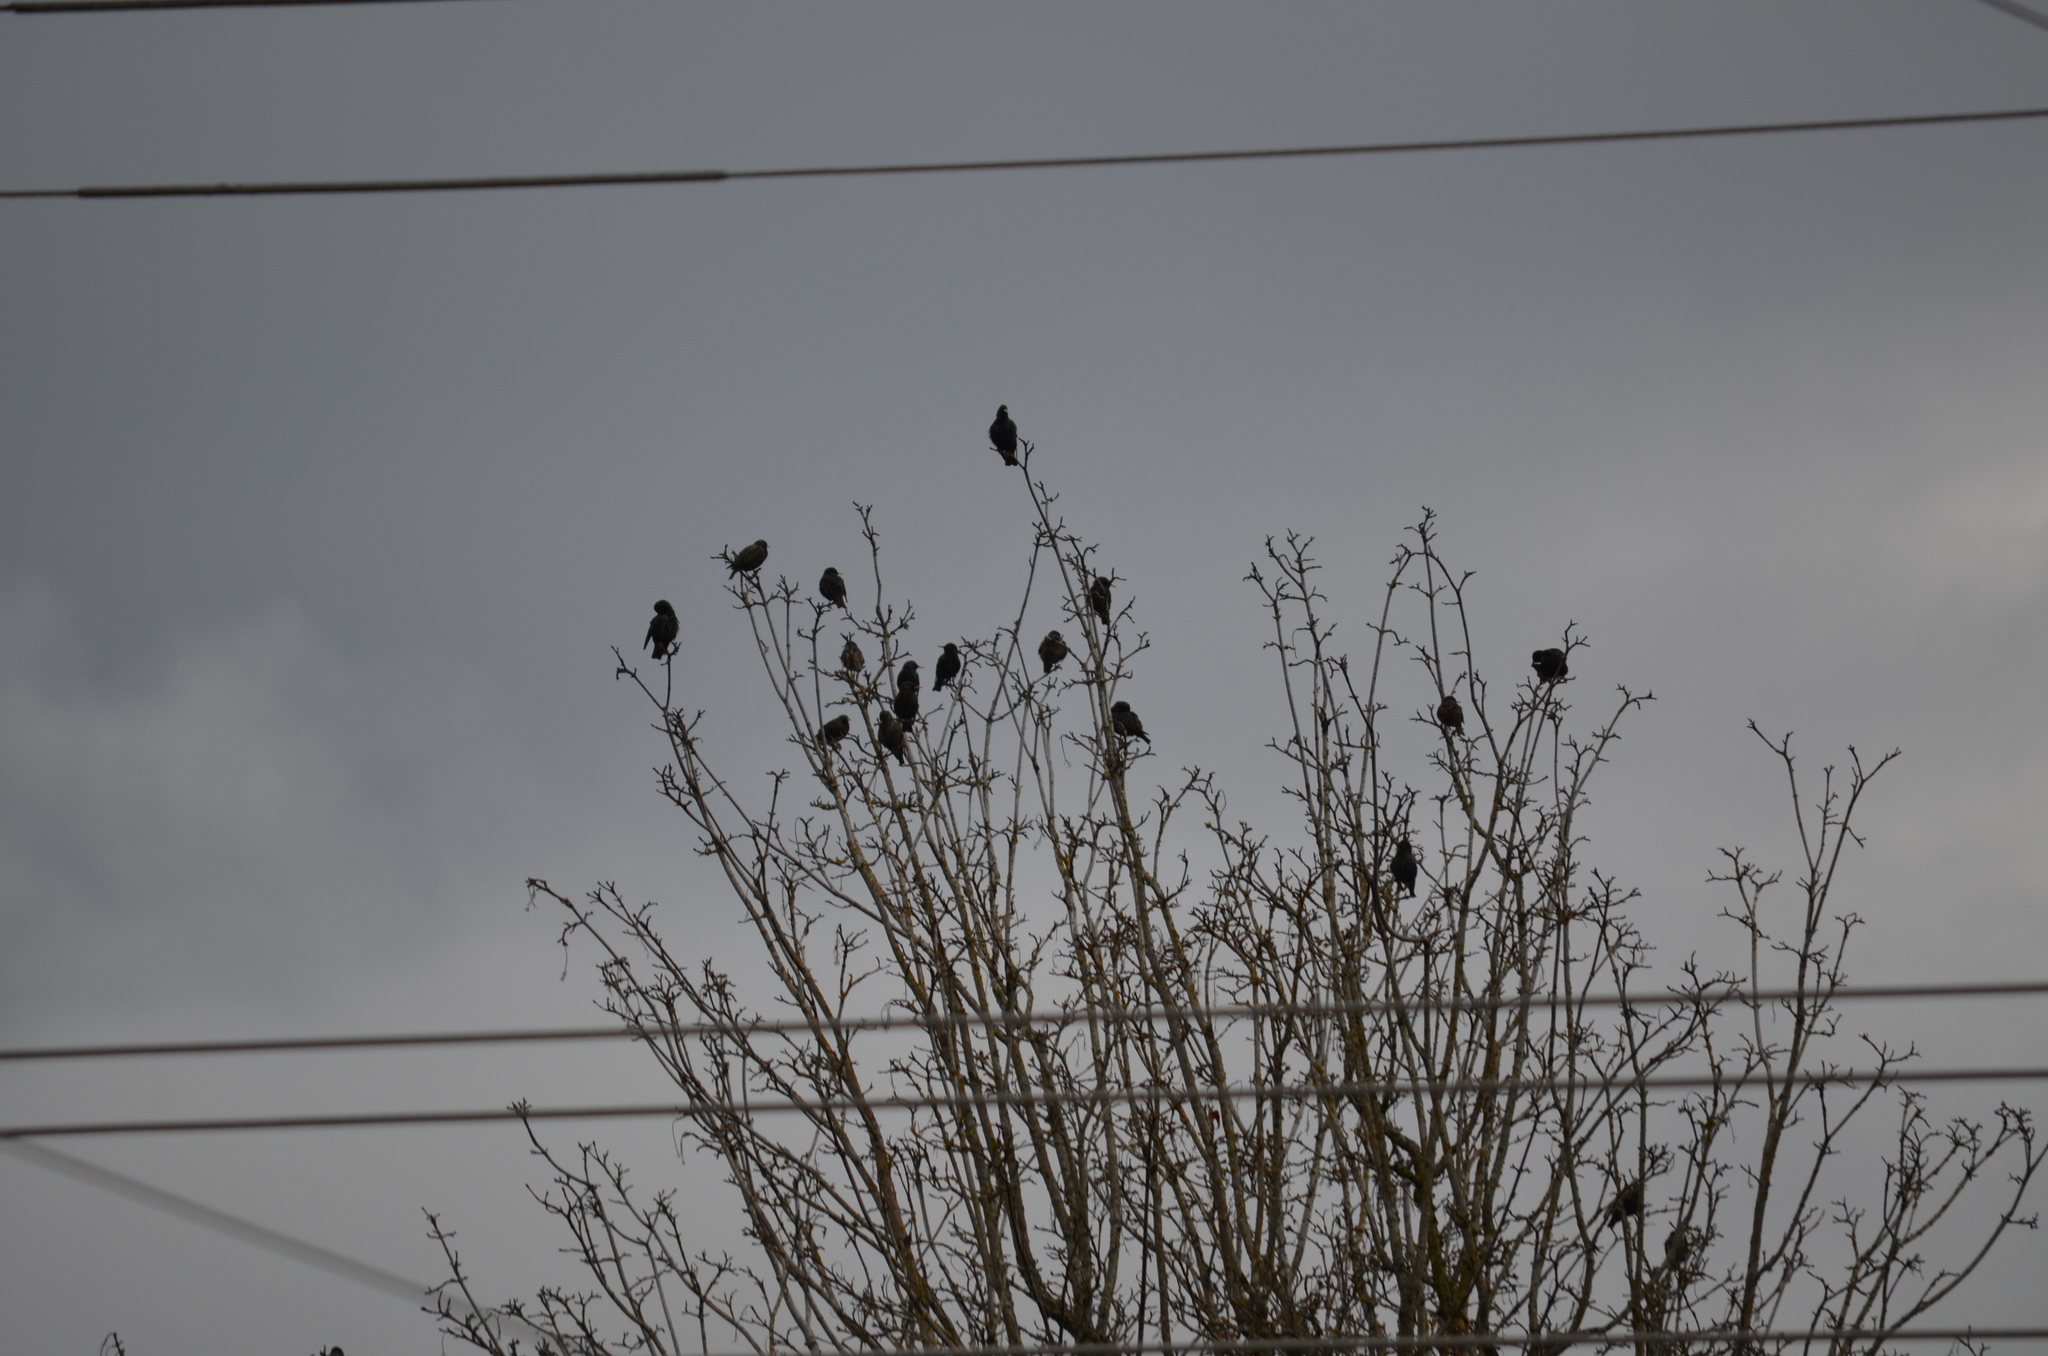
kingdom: Animalia
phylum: Chordata
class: Aves
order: Passeriformes
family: Sturnidae
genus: Sturnus
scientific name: Sturnus vulgaris
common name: Common starling
